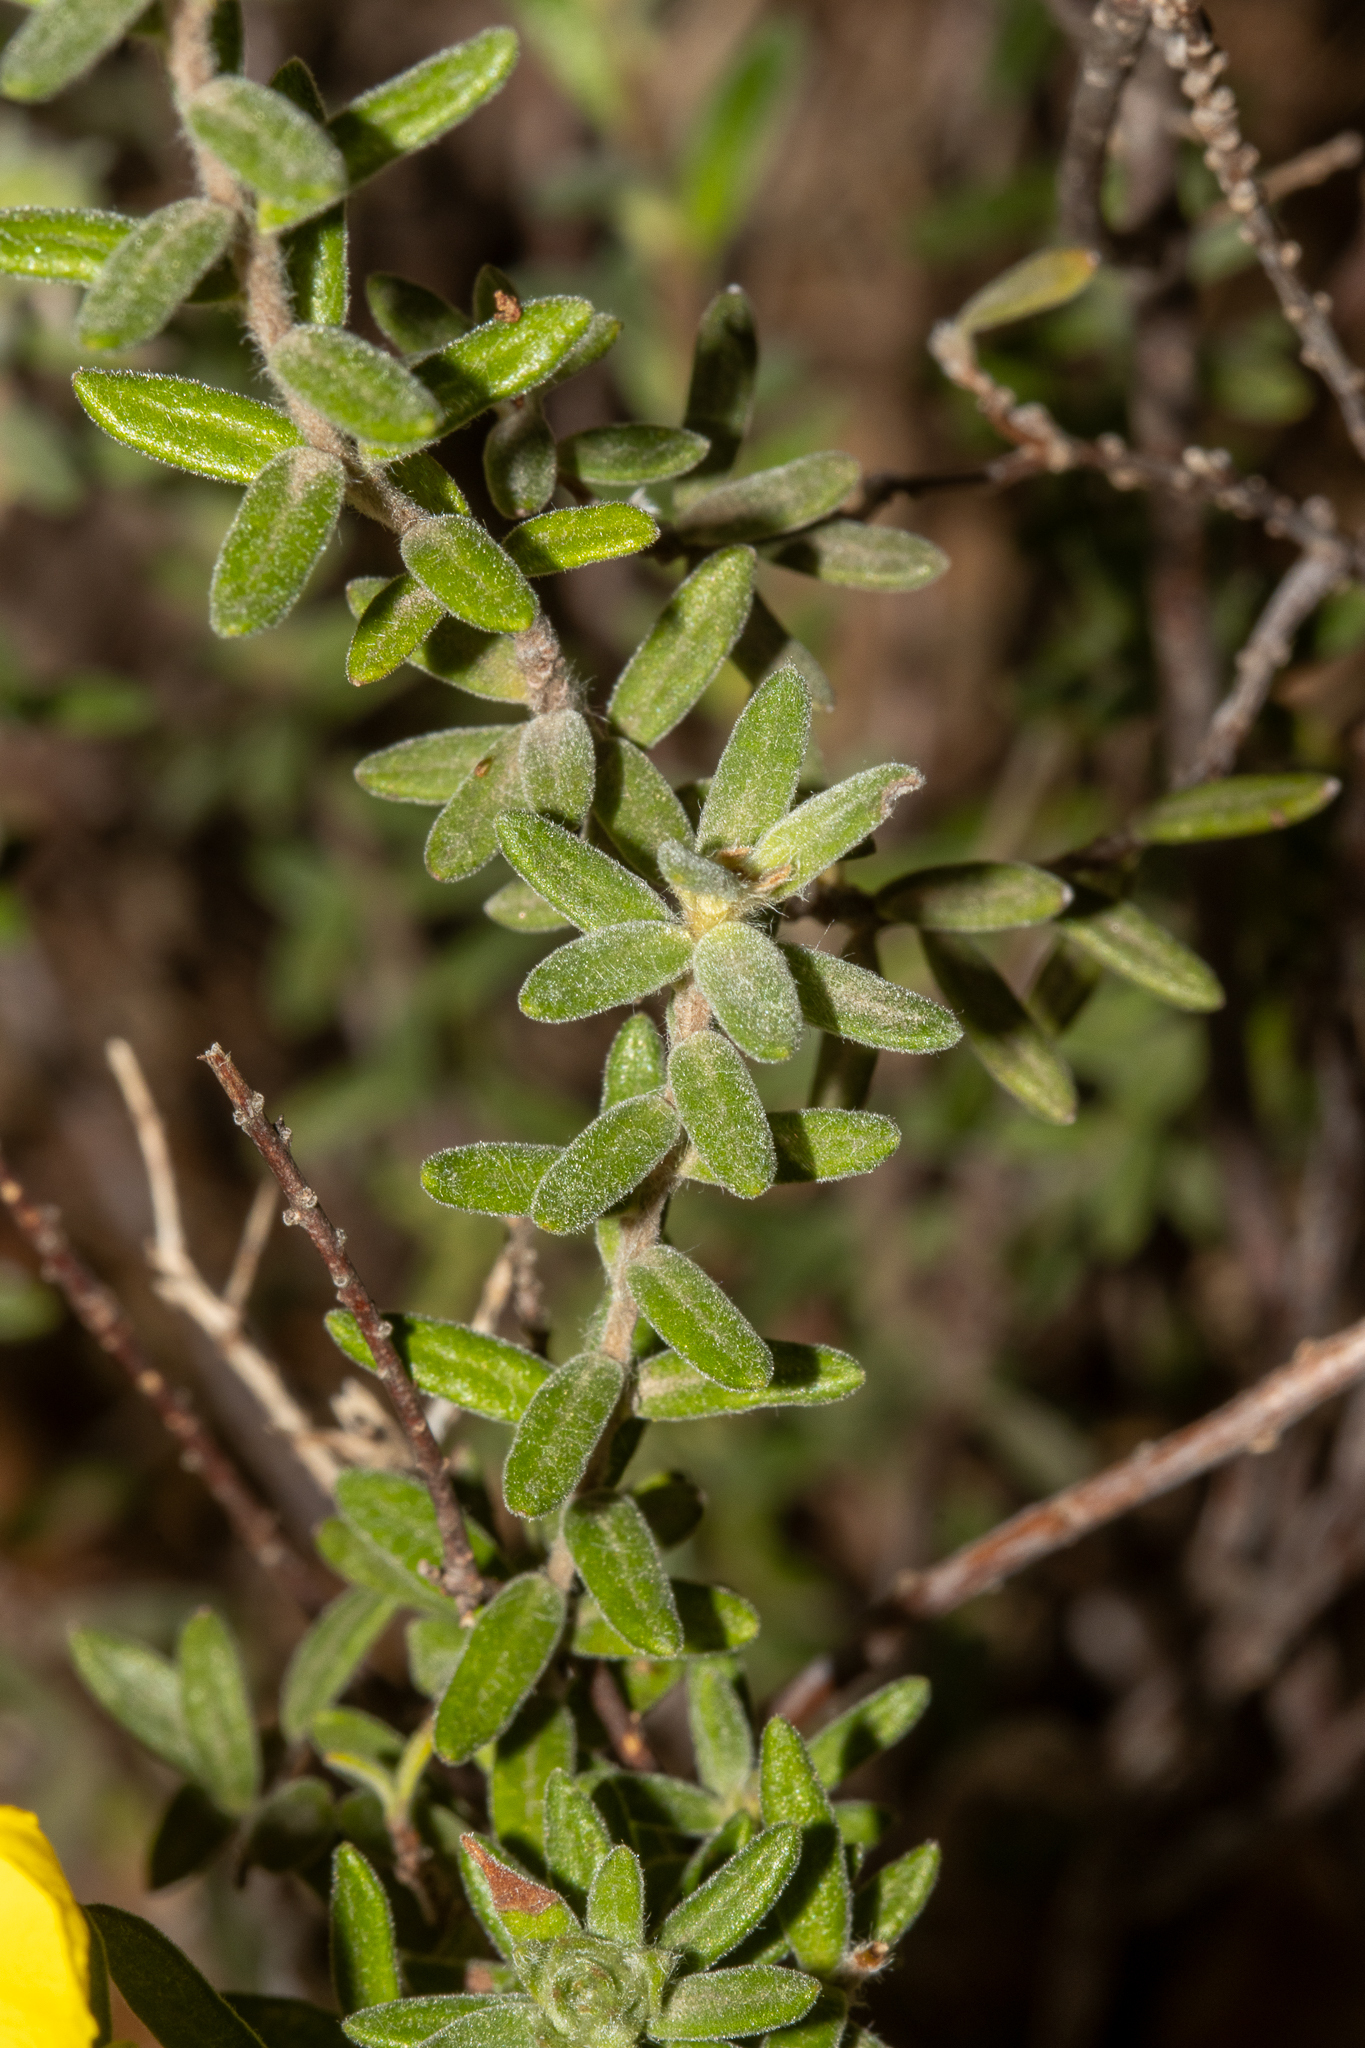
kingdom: Plantae
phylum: Tracheophyta
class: Magnoliopsida
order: Dilleniales
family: Dilleniaceae
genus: Hibbertia
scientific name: Hibbertia crinita
